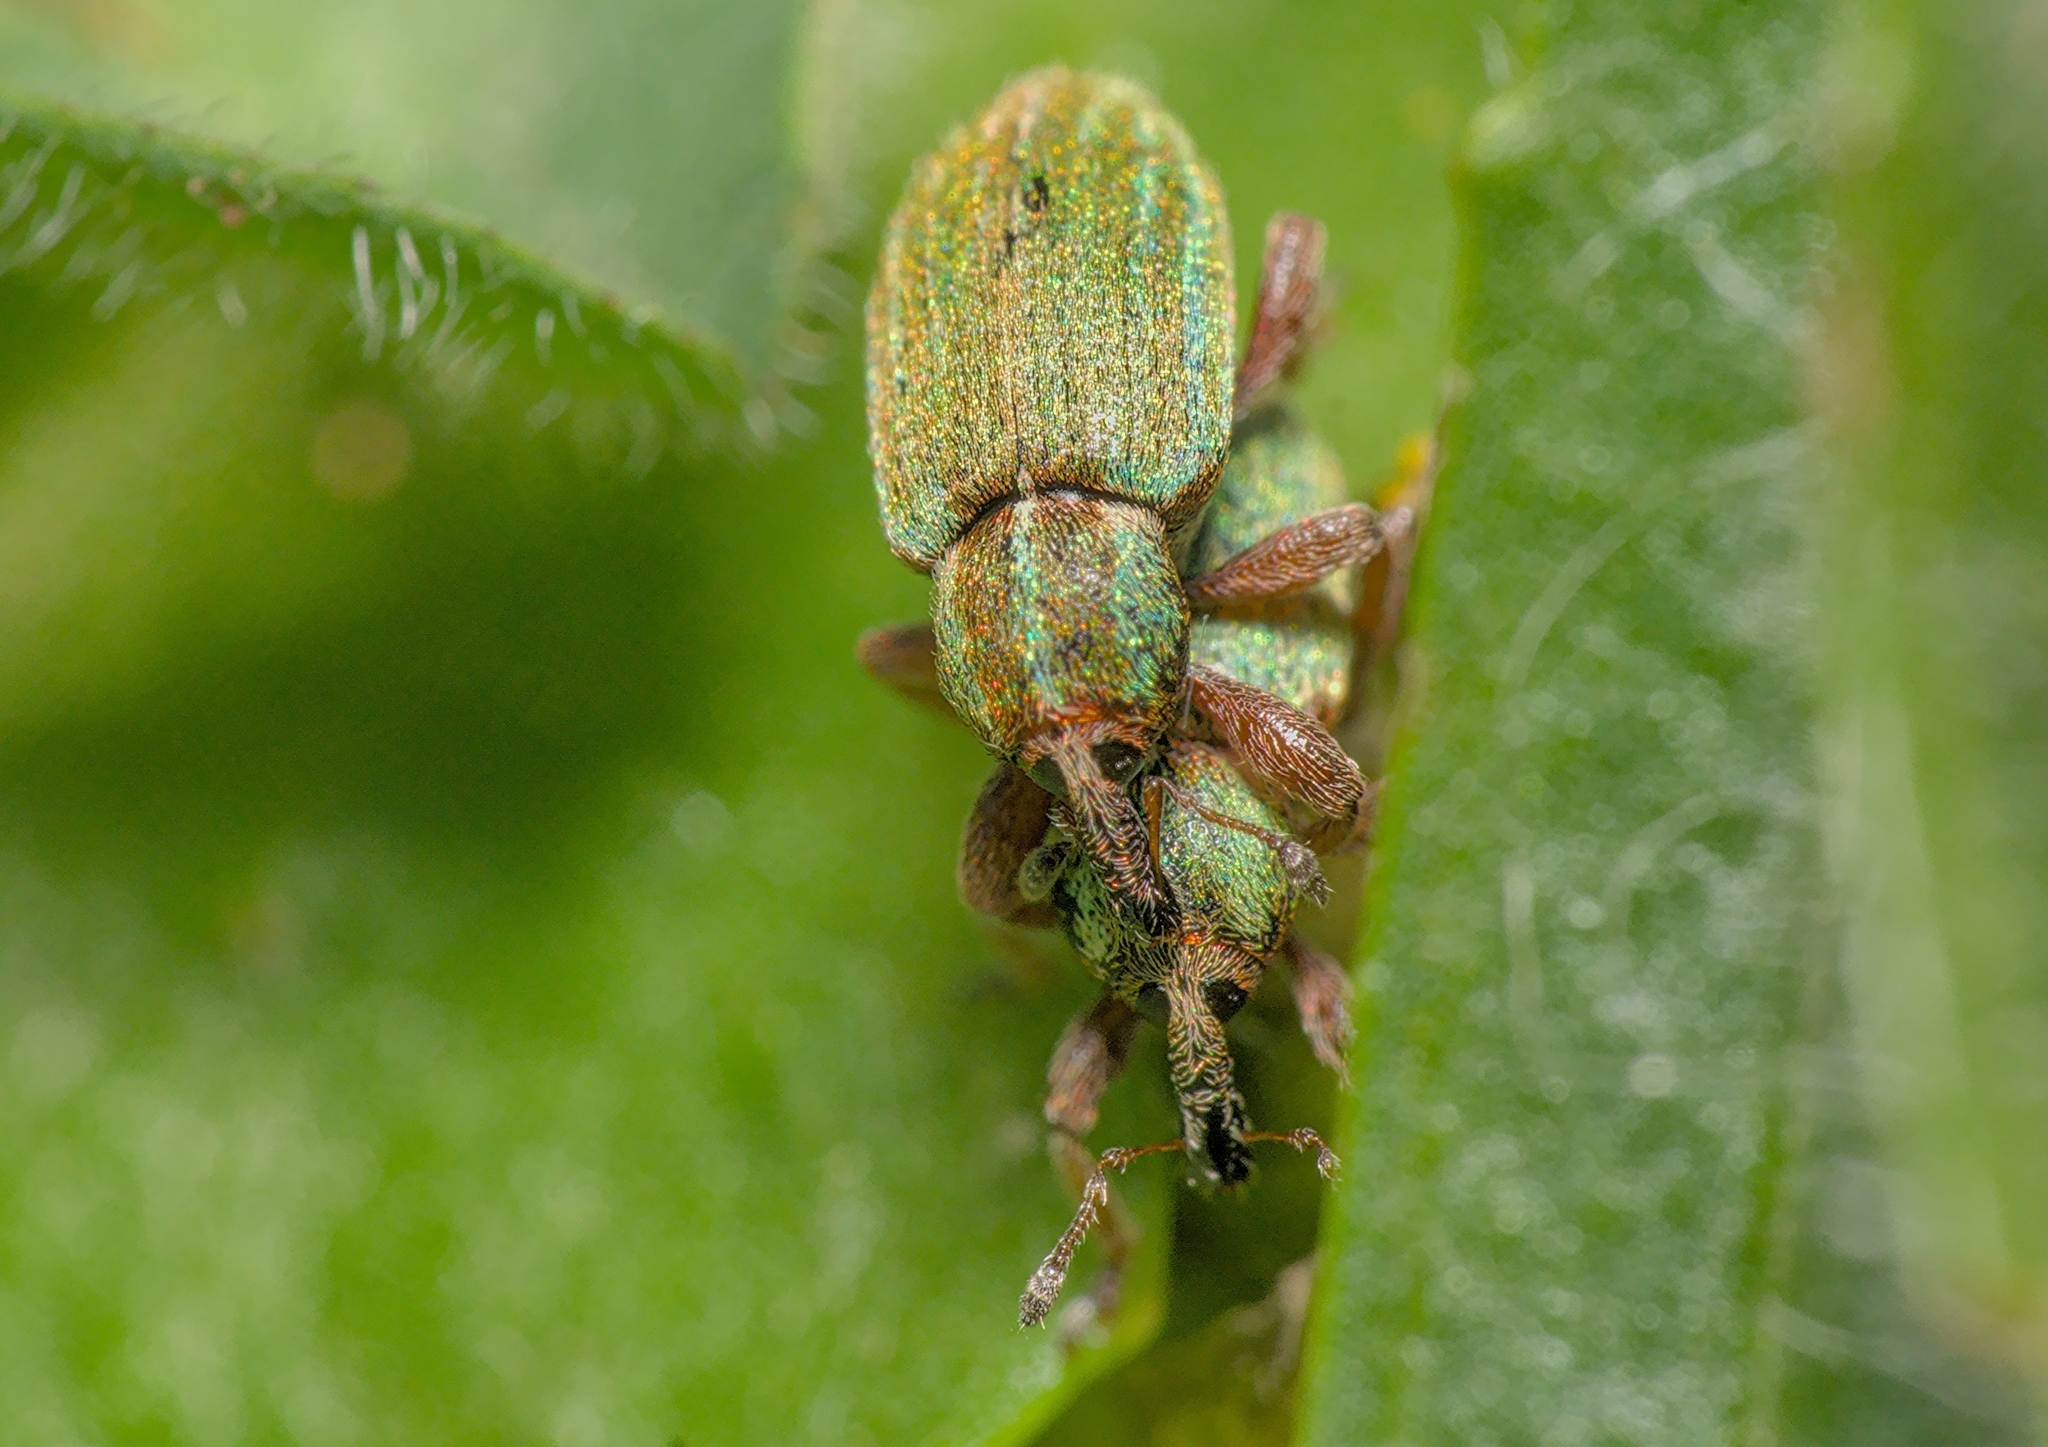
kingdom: Animalia
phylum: Arthropoda
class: Insecta
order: Coleoptera
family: Curculionidae
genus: Hypera
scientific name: Hypera nigrirostris
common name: Black-beaked green weevil
